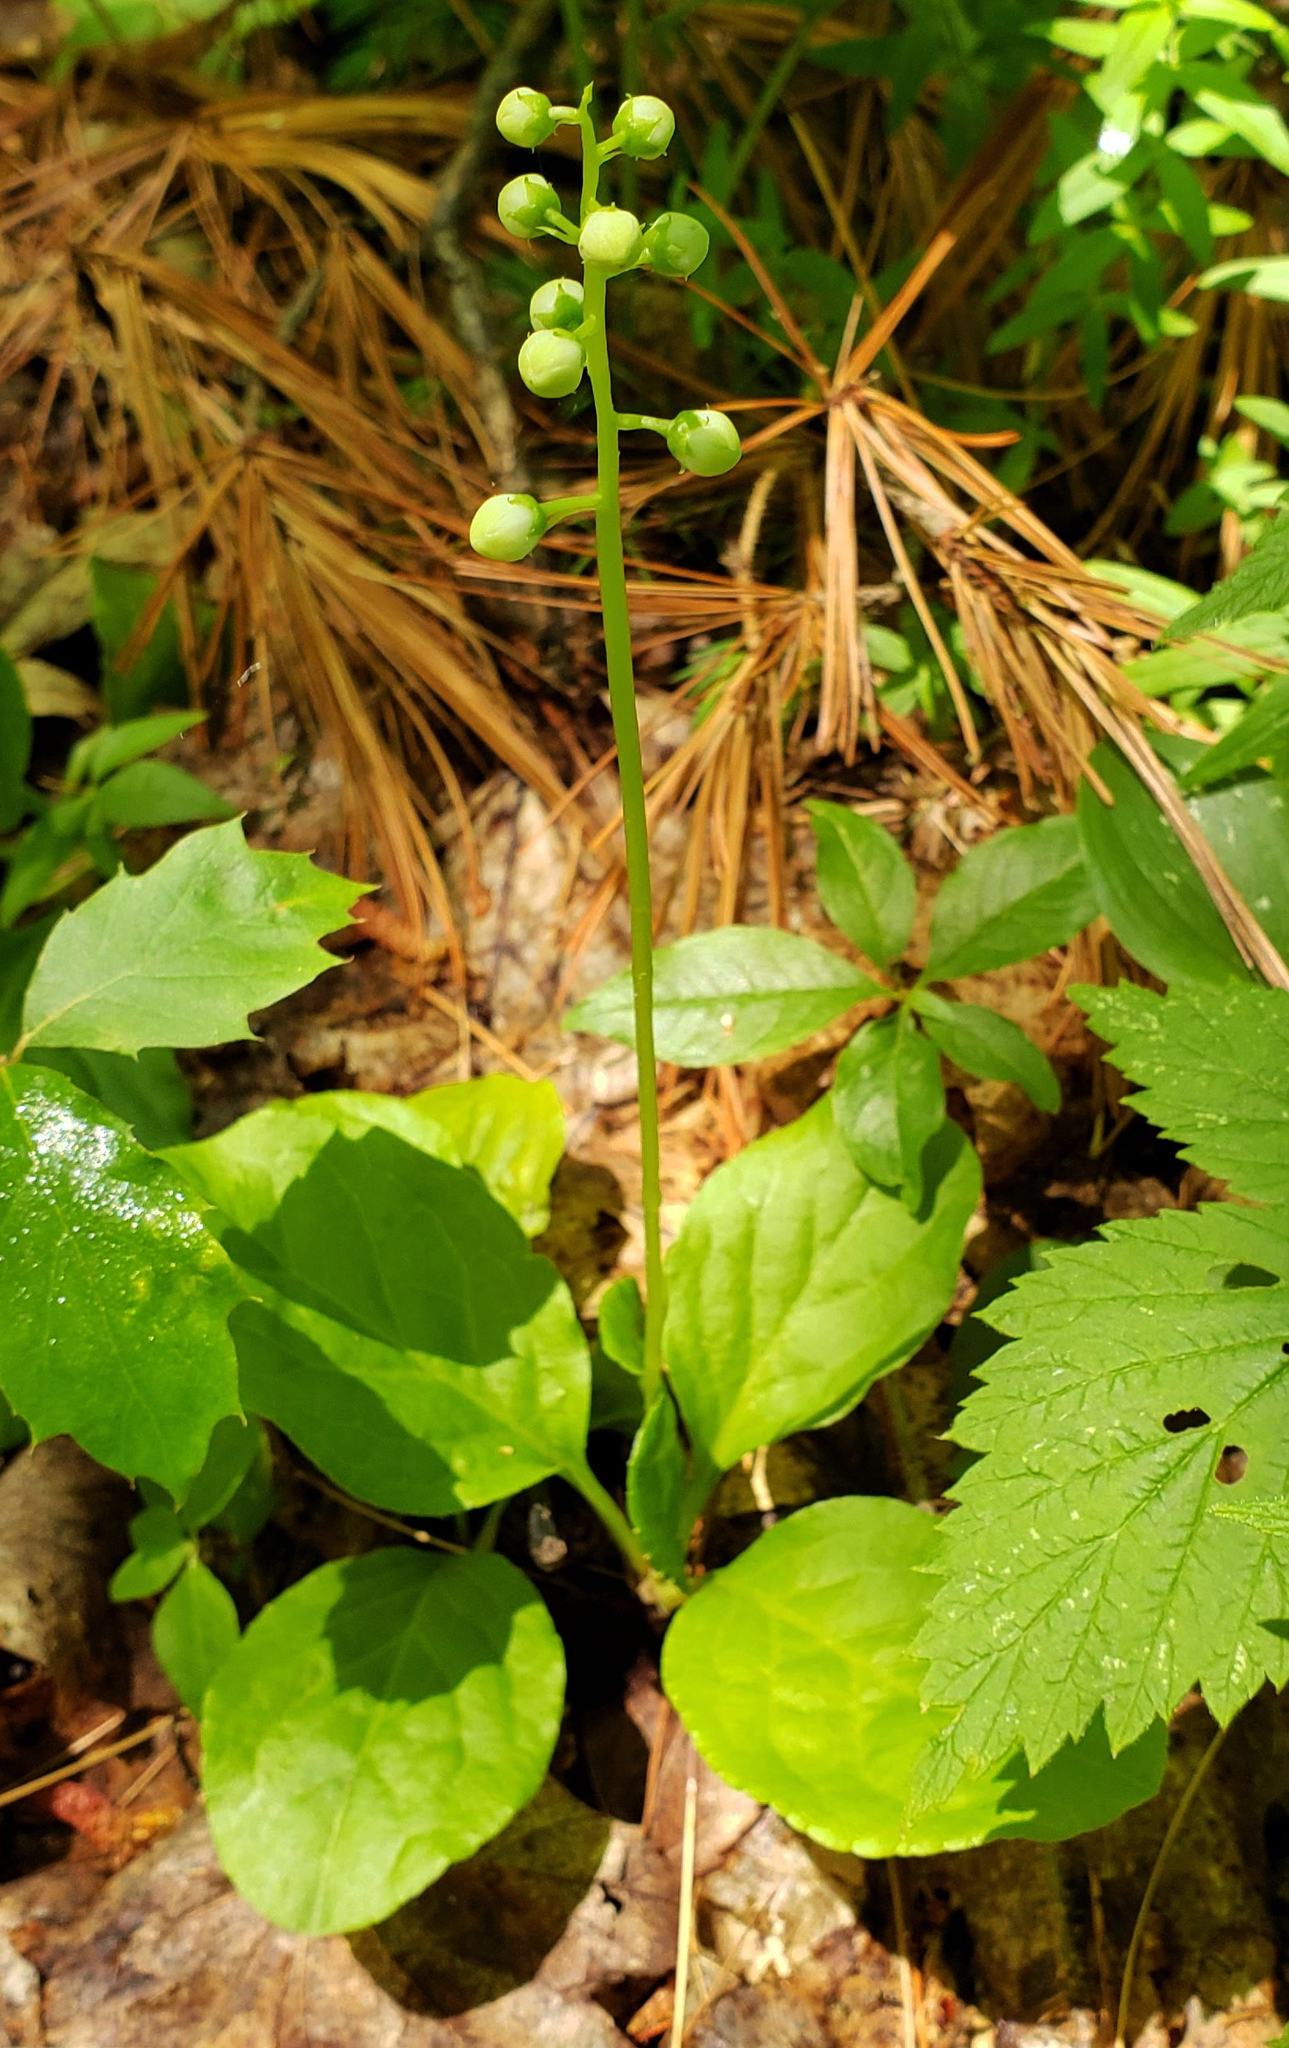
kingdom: Plantae
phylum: Tracheophyta
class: Magnoliopsida
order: Ericales
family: Ericaceae
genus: Pyrola
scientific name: Pyrola elliptica
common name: Shinleaf
